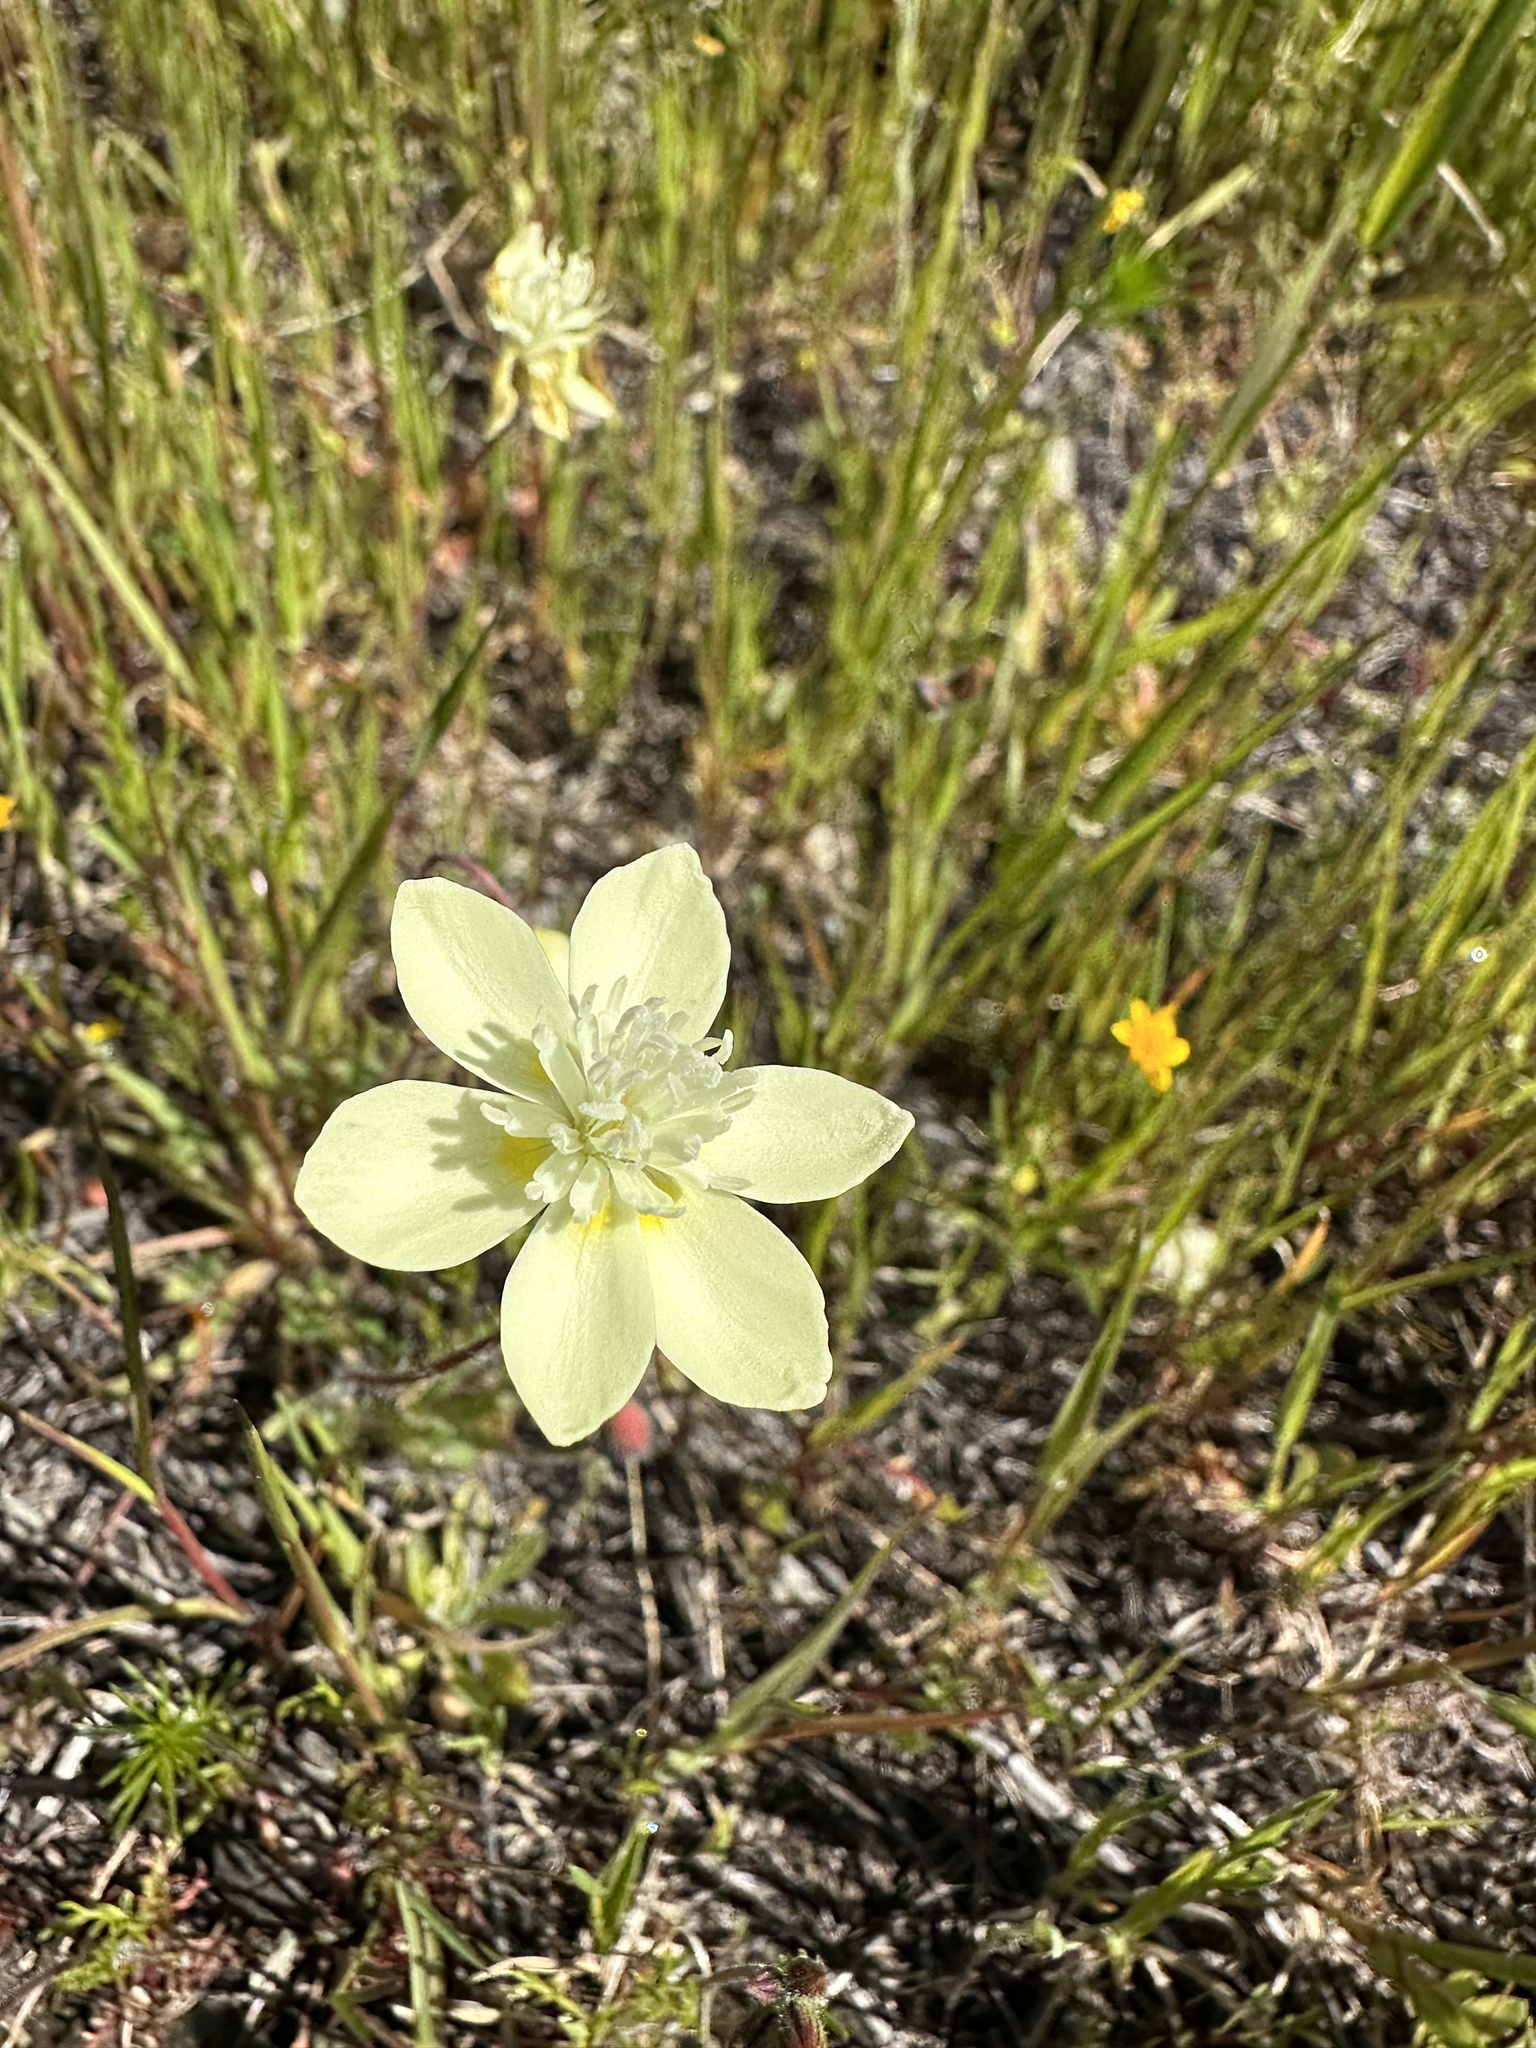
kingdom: Plantae
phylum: Tracheophyta
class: Magnoliopsida
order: Ranunculales
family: Papaveraceae
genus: Platystemon
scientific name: Platystemon californicus
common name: Cream-cups
